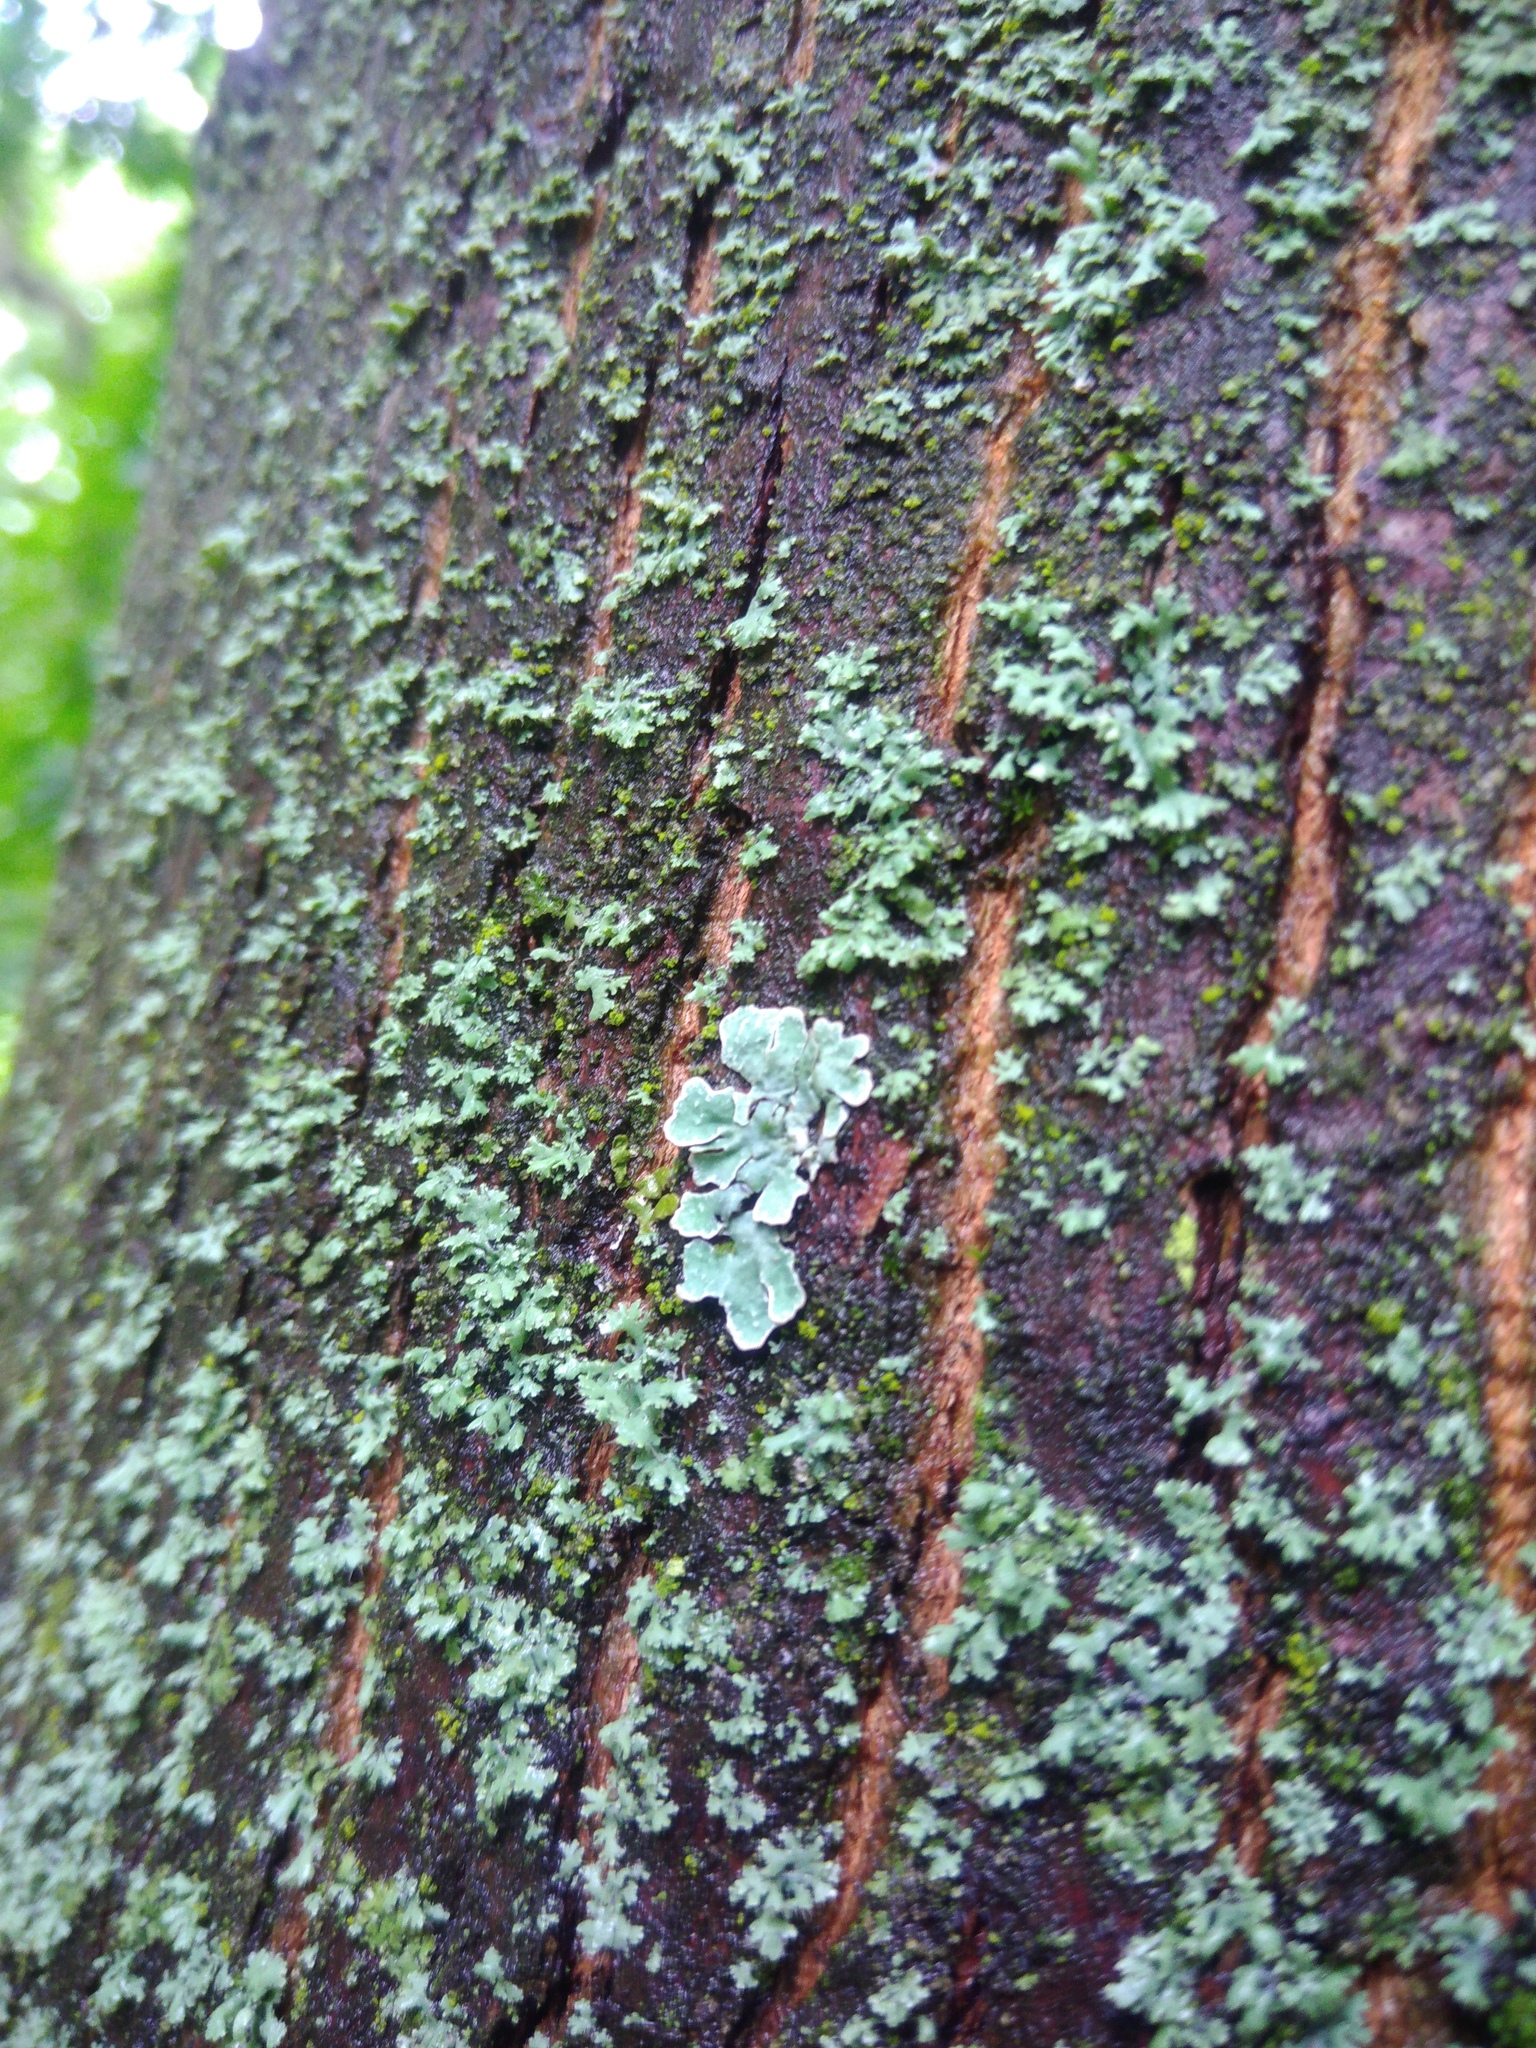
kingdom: Fungi
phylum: Ascomycota
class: Lecanoromycetes
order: Lecanorales
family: Parmeliaceae
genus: Parmelia
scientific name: Parmelia sulcata
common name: Netted shield lichen
